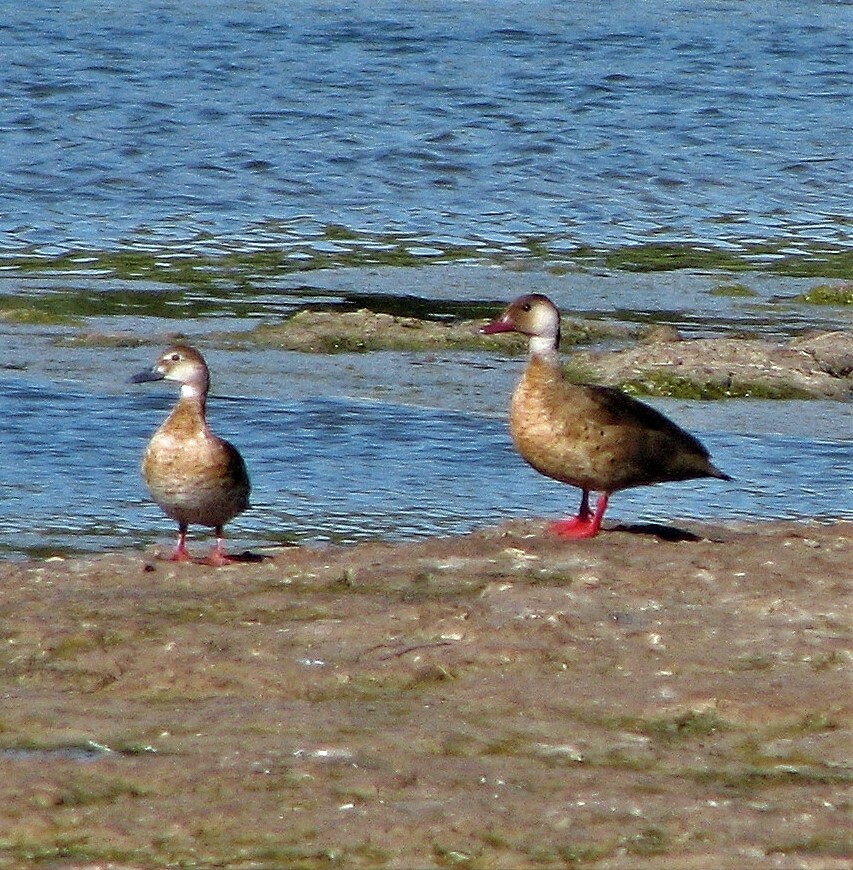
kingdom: Animalia
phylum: Chordata
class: Aves
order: Anseriformes
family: Anatidae
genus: Amazonetta
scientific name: Amazonetta brasiliensis
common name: Brazilian teal
